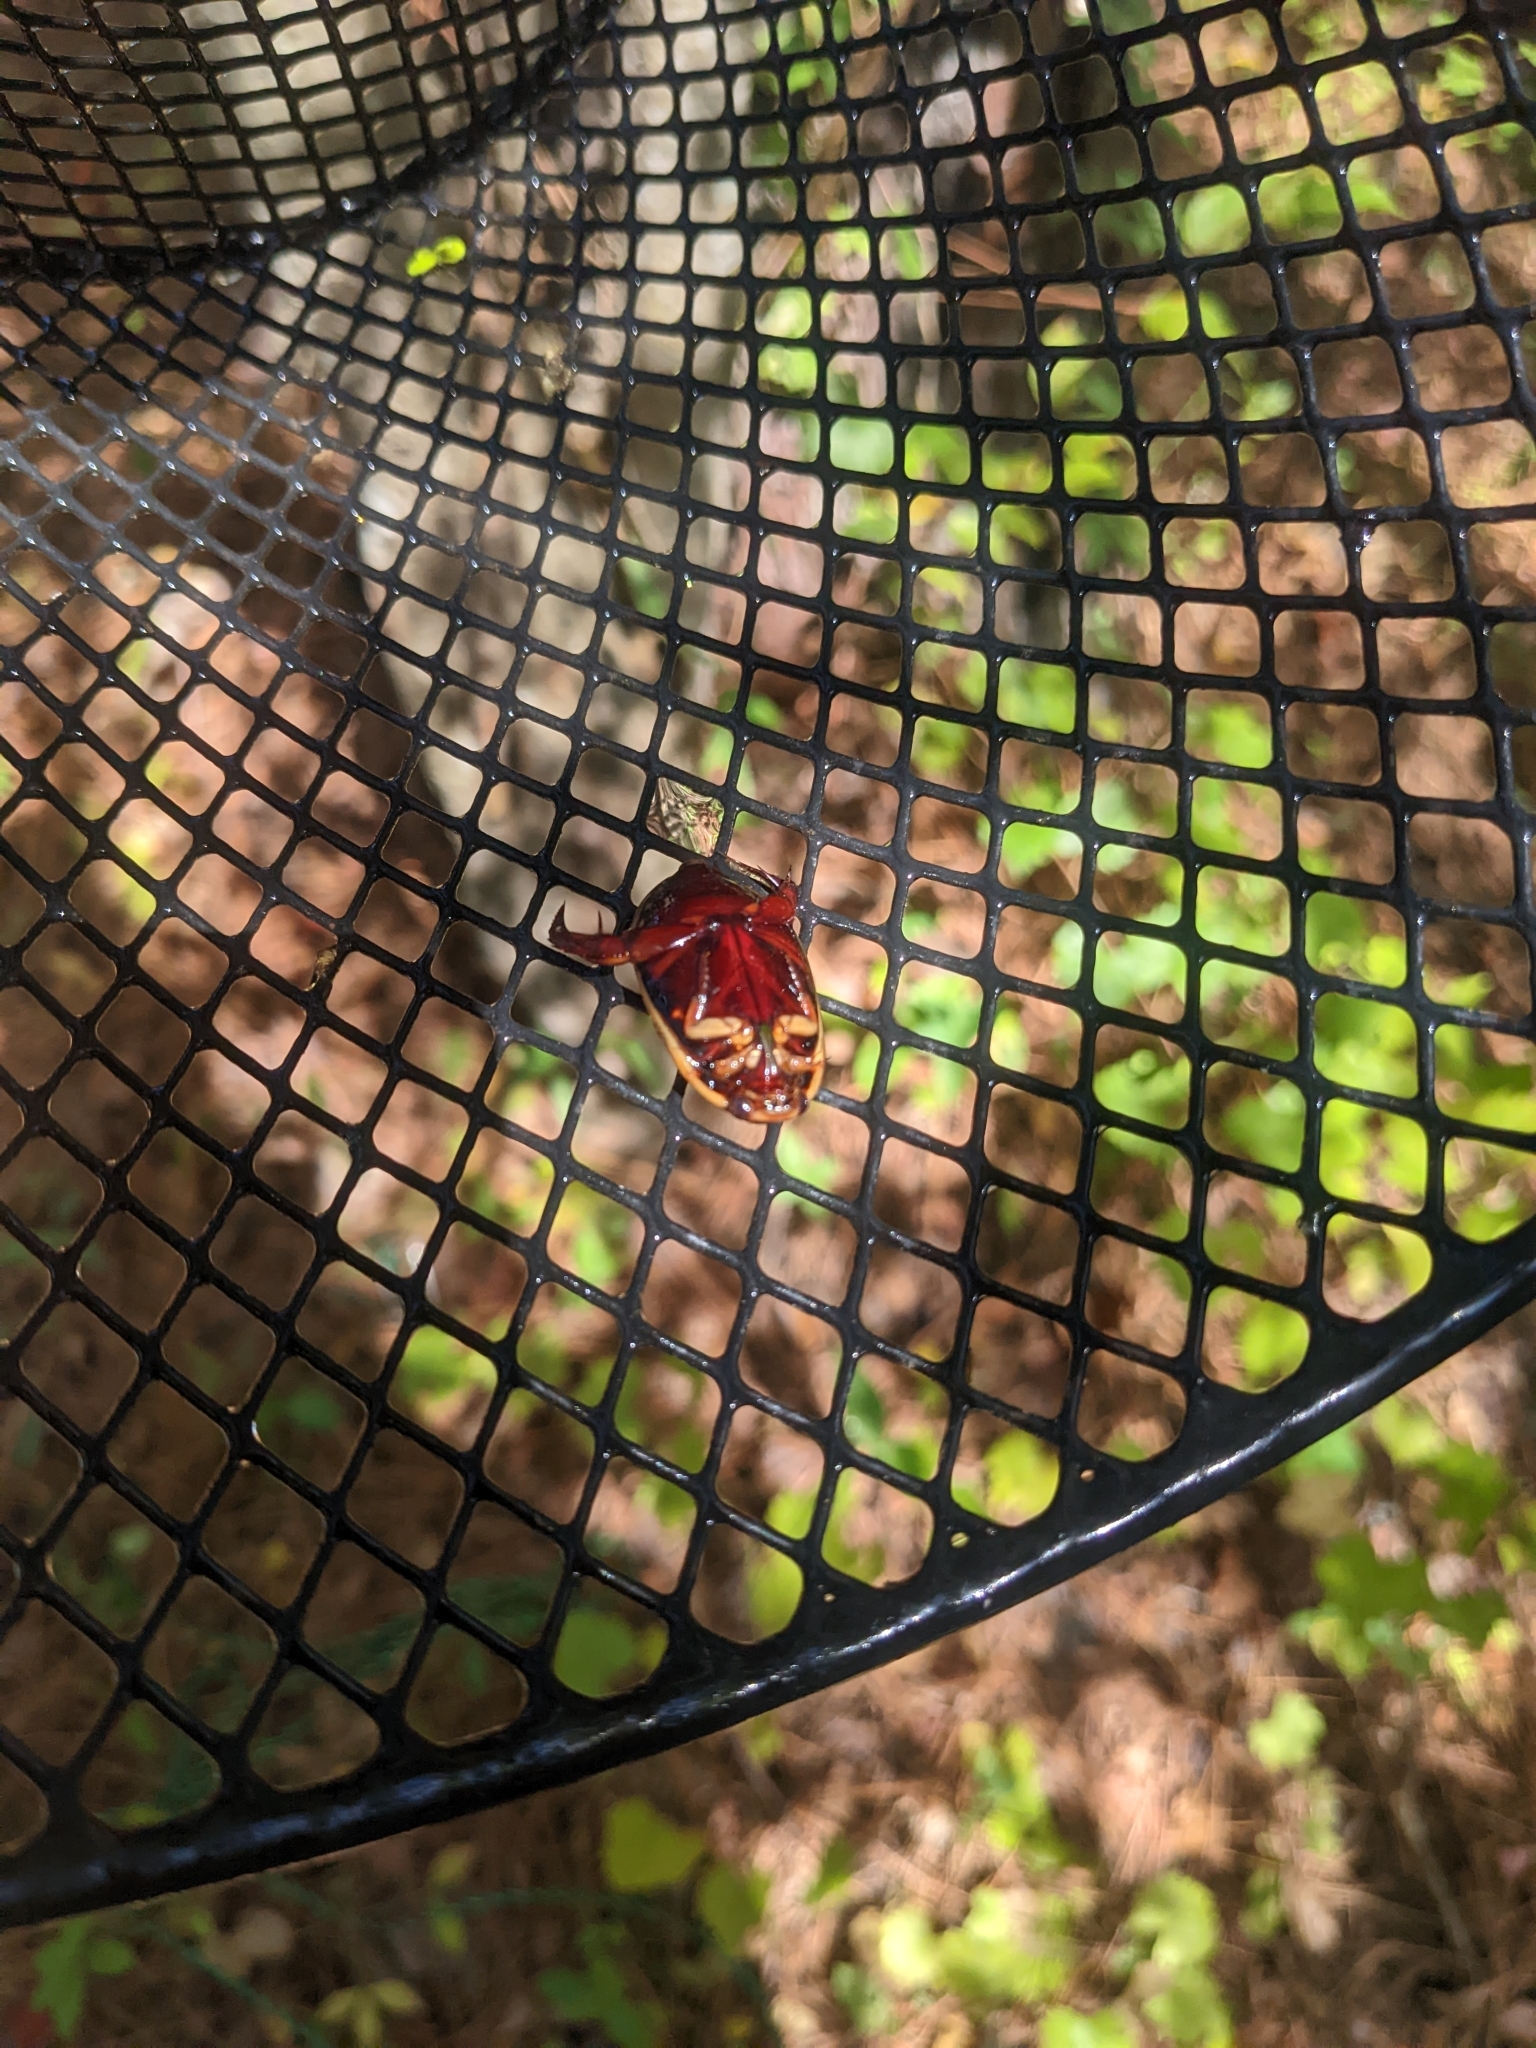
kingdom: Animalia
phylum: Arthropoda
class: Insecta
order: Coleoptera
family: Dytiscidae
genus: Cybister
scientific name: Cybister fimbriolatus
